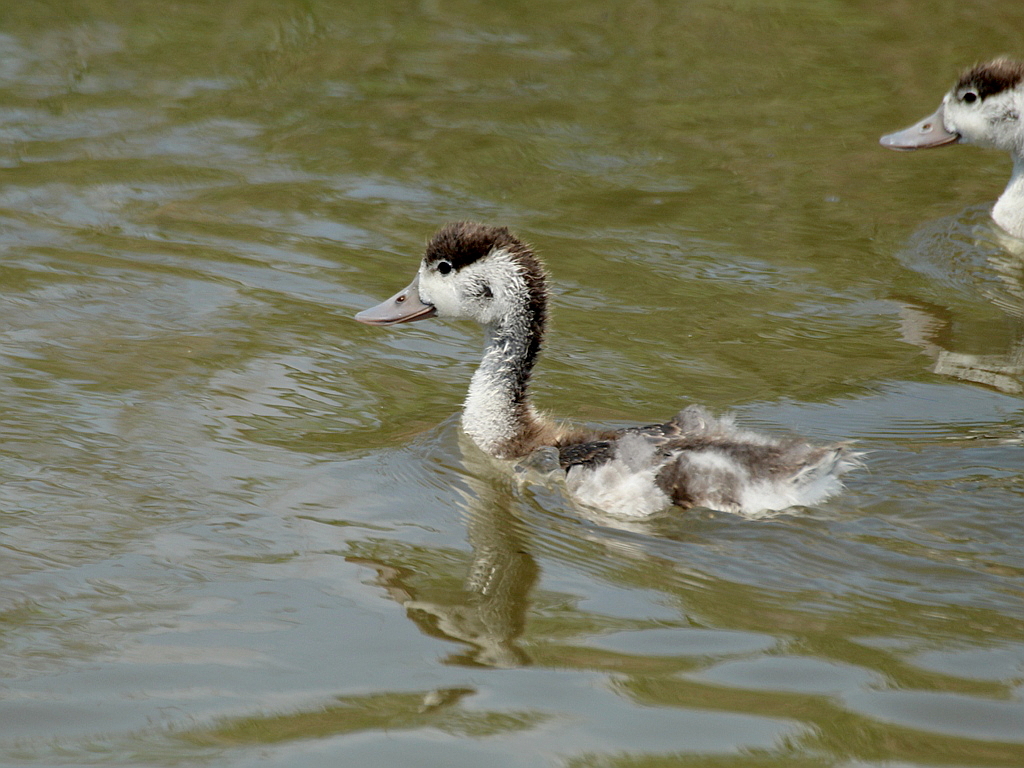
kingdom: Animalia
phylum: Chordata
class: Aves
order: Anseriformes
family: Anatidae
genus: Tadorna
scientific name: Tadorna tadorna
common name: Common shelduck
